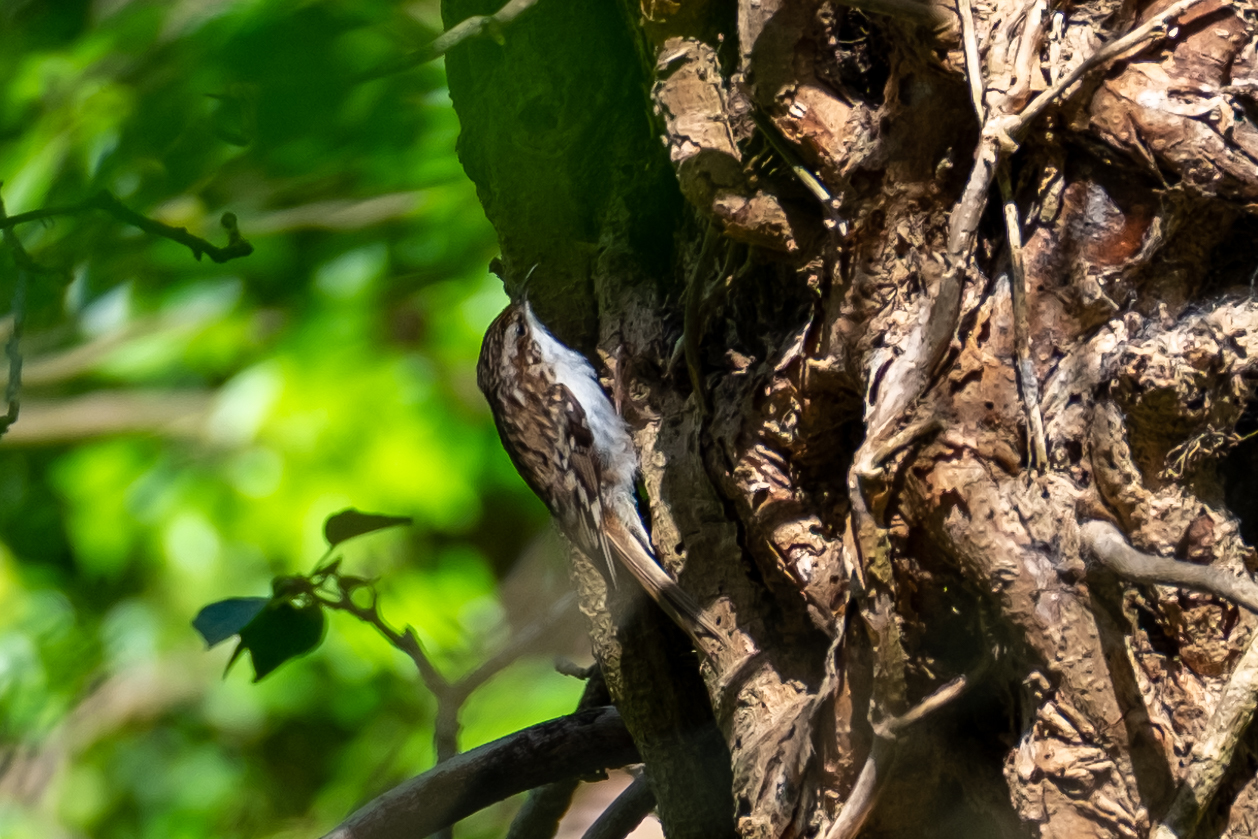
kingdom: Animalia
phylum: Chordata
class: Aves
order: Passeriformes
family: Certhiidae
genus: Certhia
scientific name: Certhia familiaris
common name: Eurasian treecreeper
